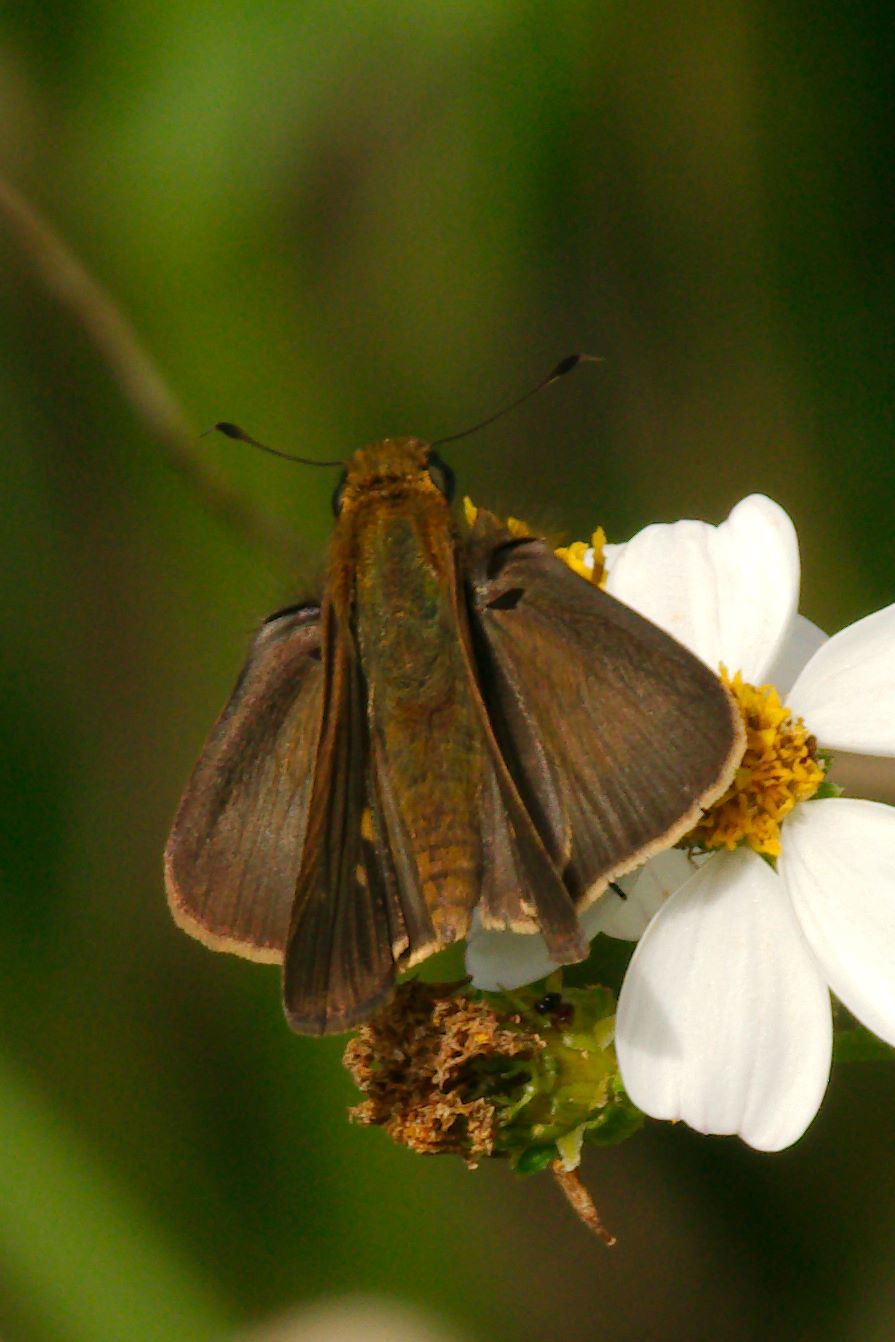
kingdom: Animalia
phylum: Arthropoda
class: Insecta
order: Lepidoptera
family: Hesperiidae
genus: Panoquina
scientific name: Panoquina ocola
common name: Ocola skipper
